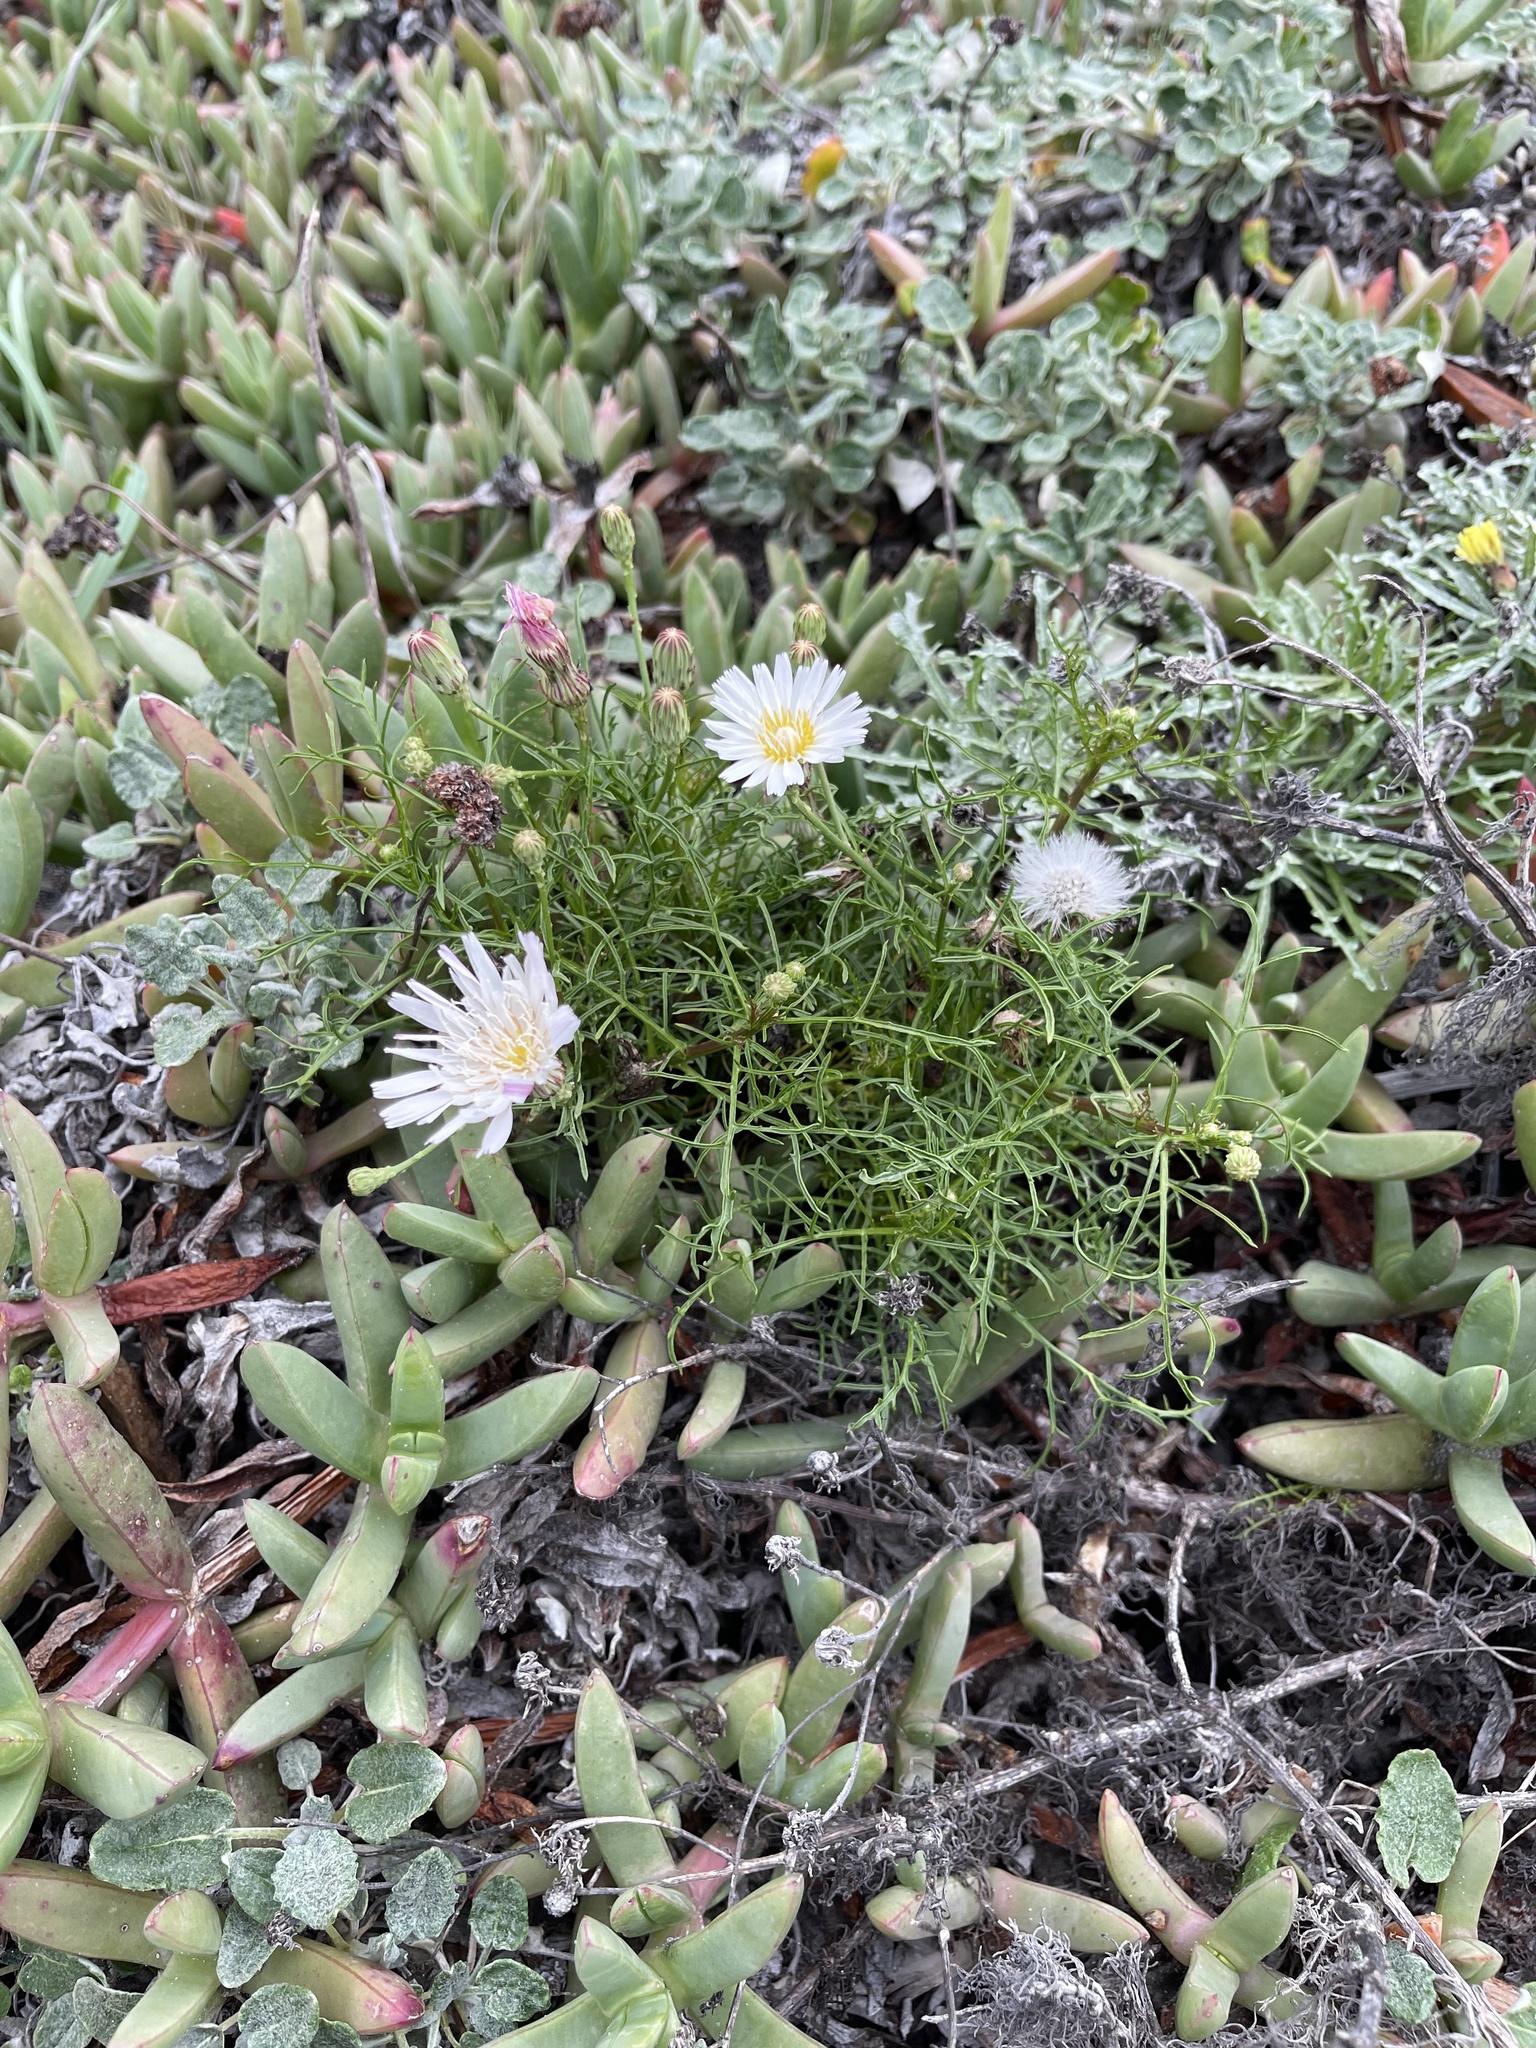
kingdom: Plantae
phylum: Tracheophyta
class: Magnoliopsida
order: Asterales
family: Asteraceae
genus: Malacothrix
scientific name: Malacothrix saxatilis
